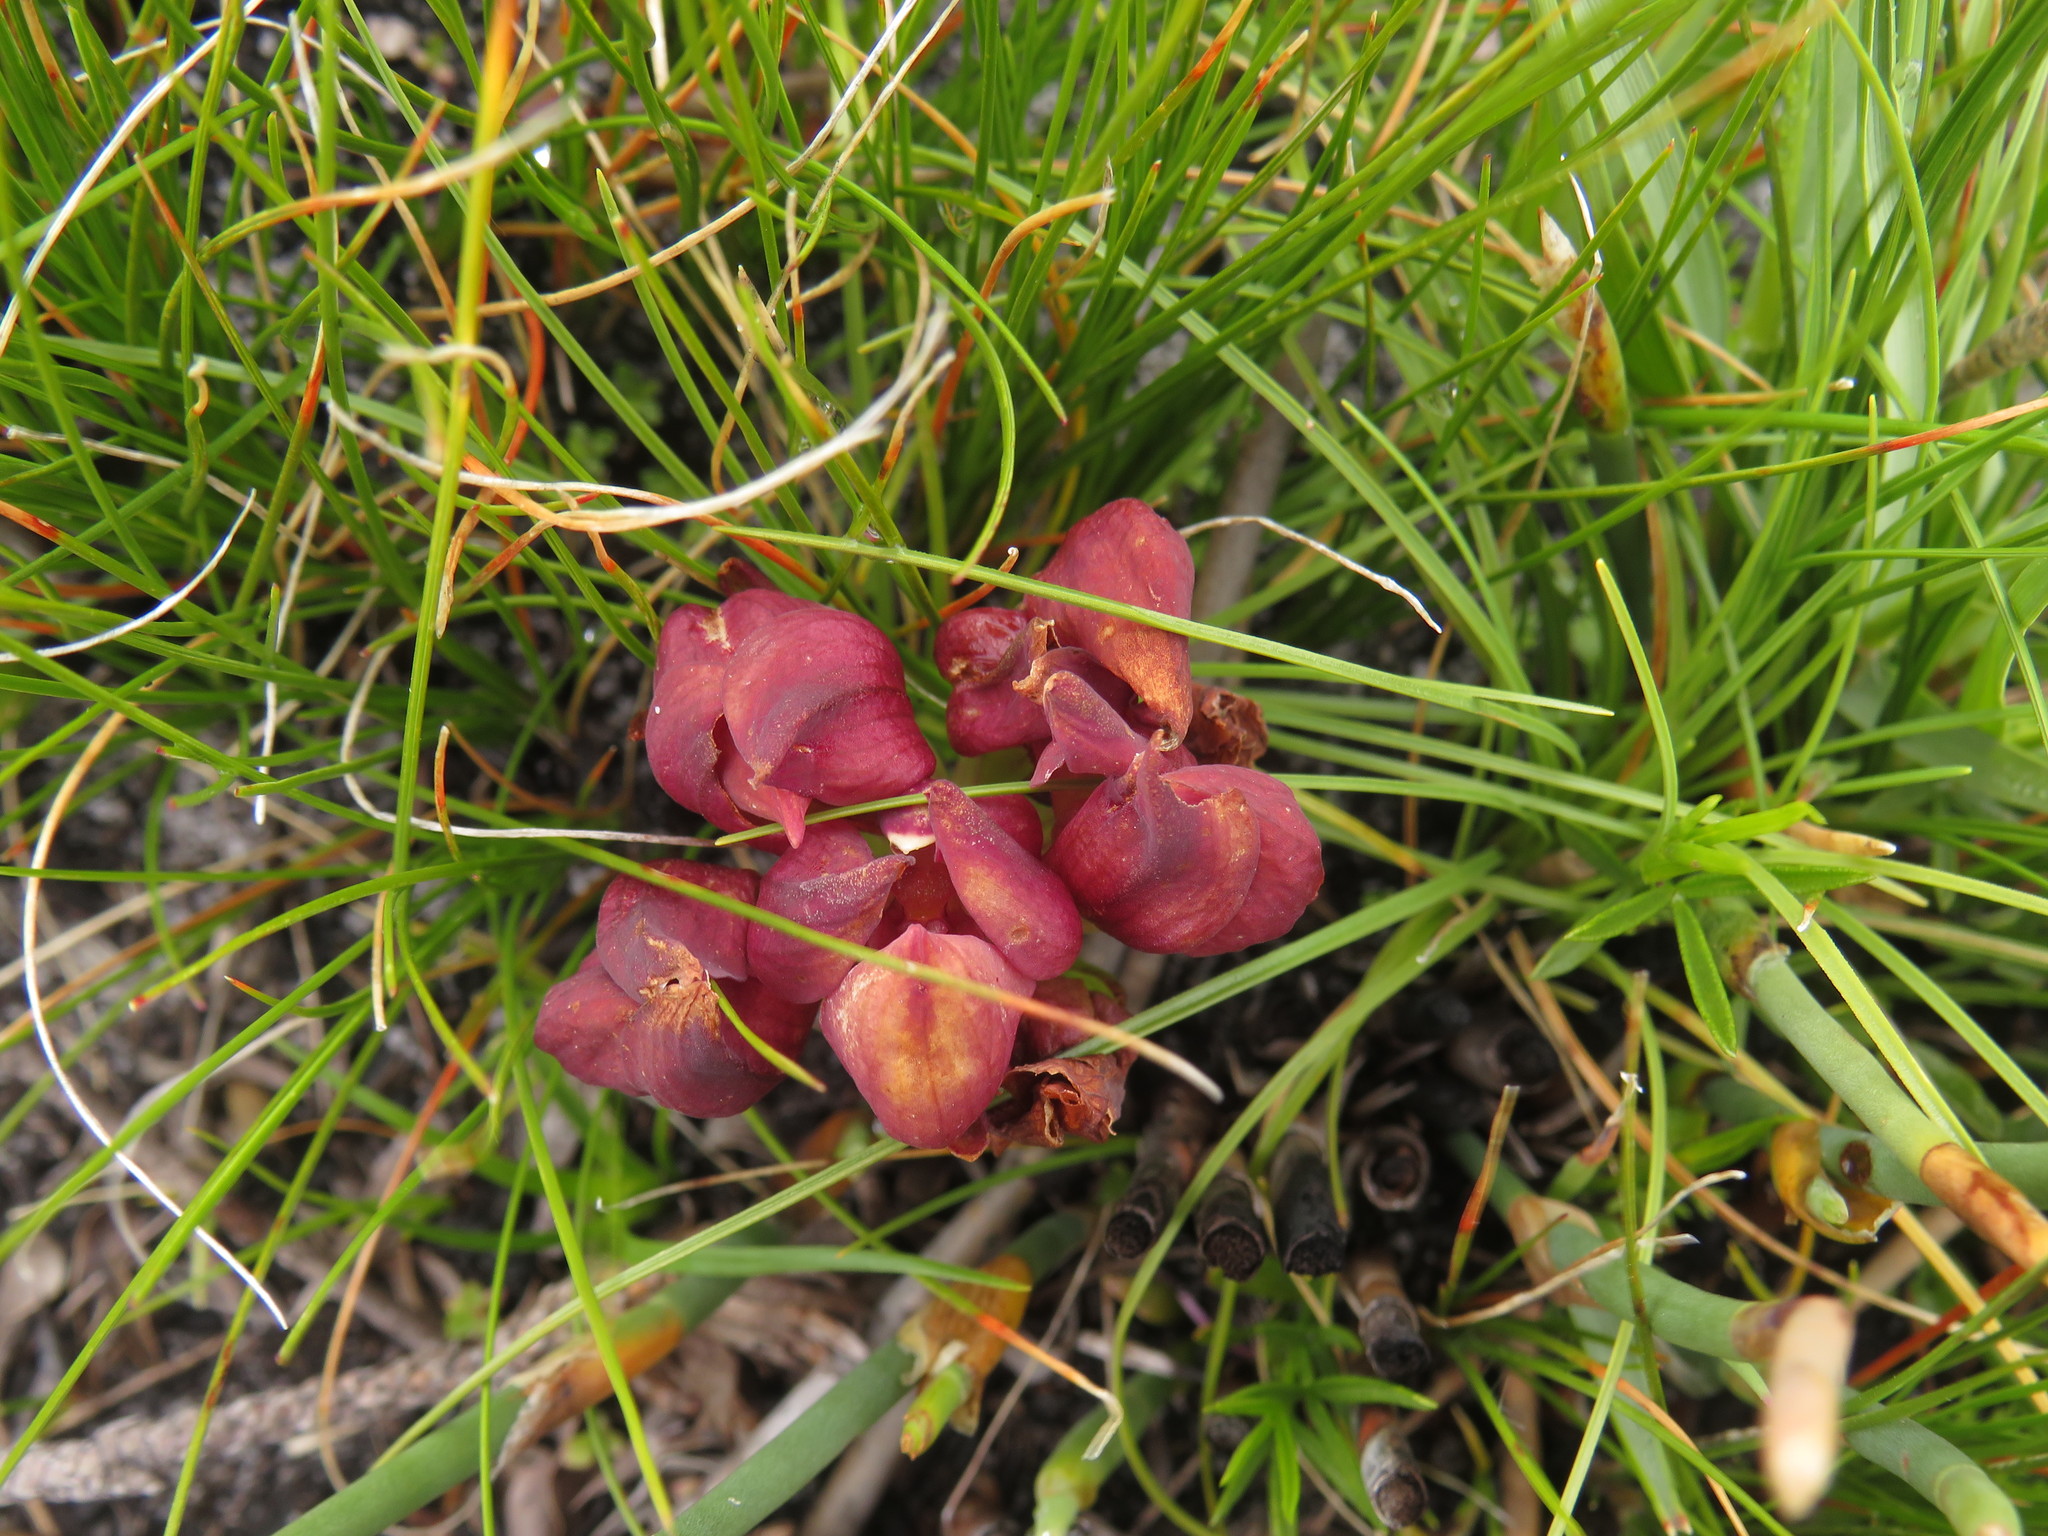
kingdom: Plantae
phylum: Tracheophyta
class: Liliopsida
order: Asparagales
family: Orchidaceae
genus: Disa
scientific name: Disa bodkinii
